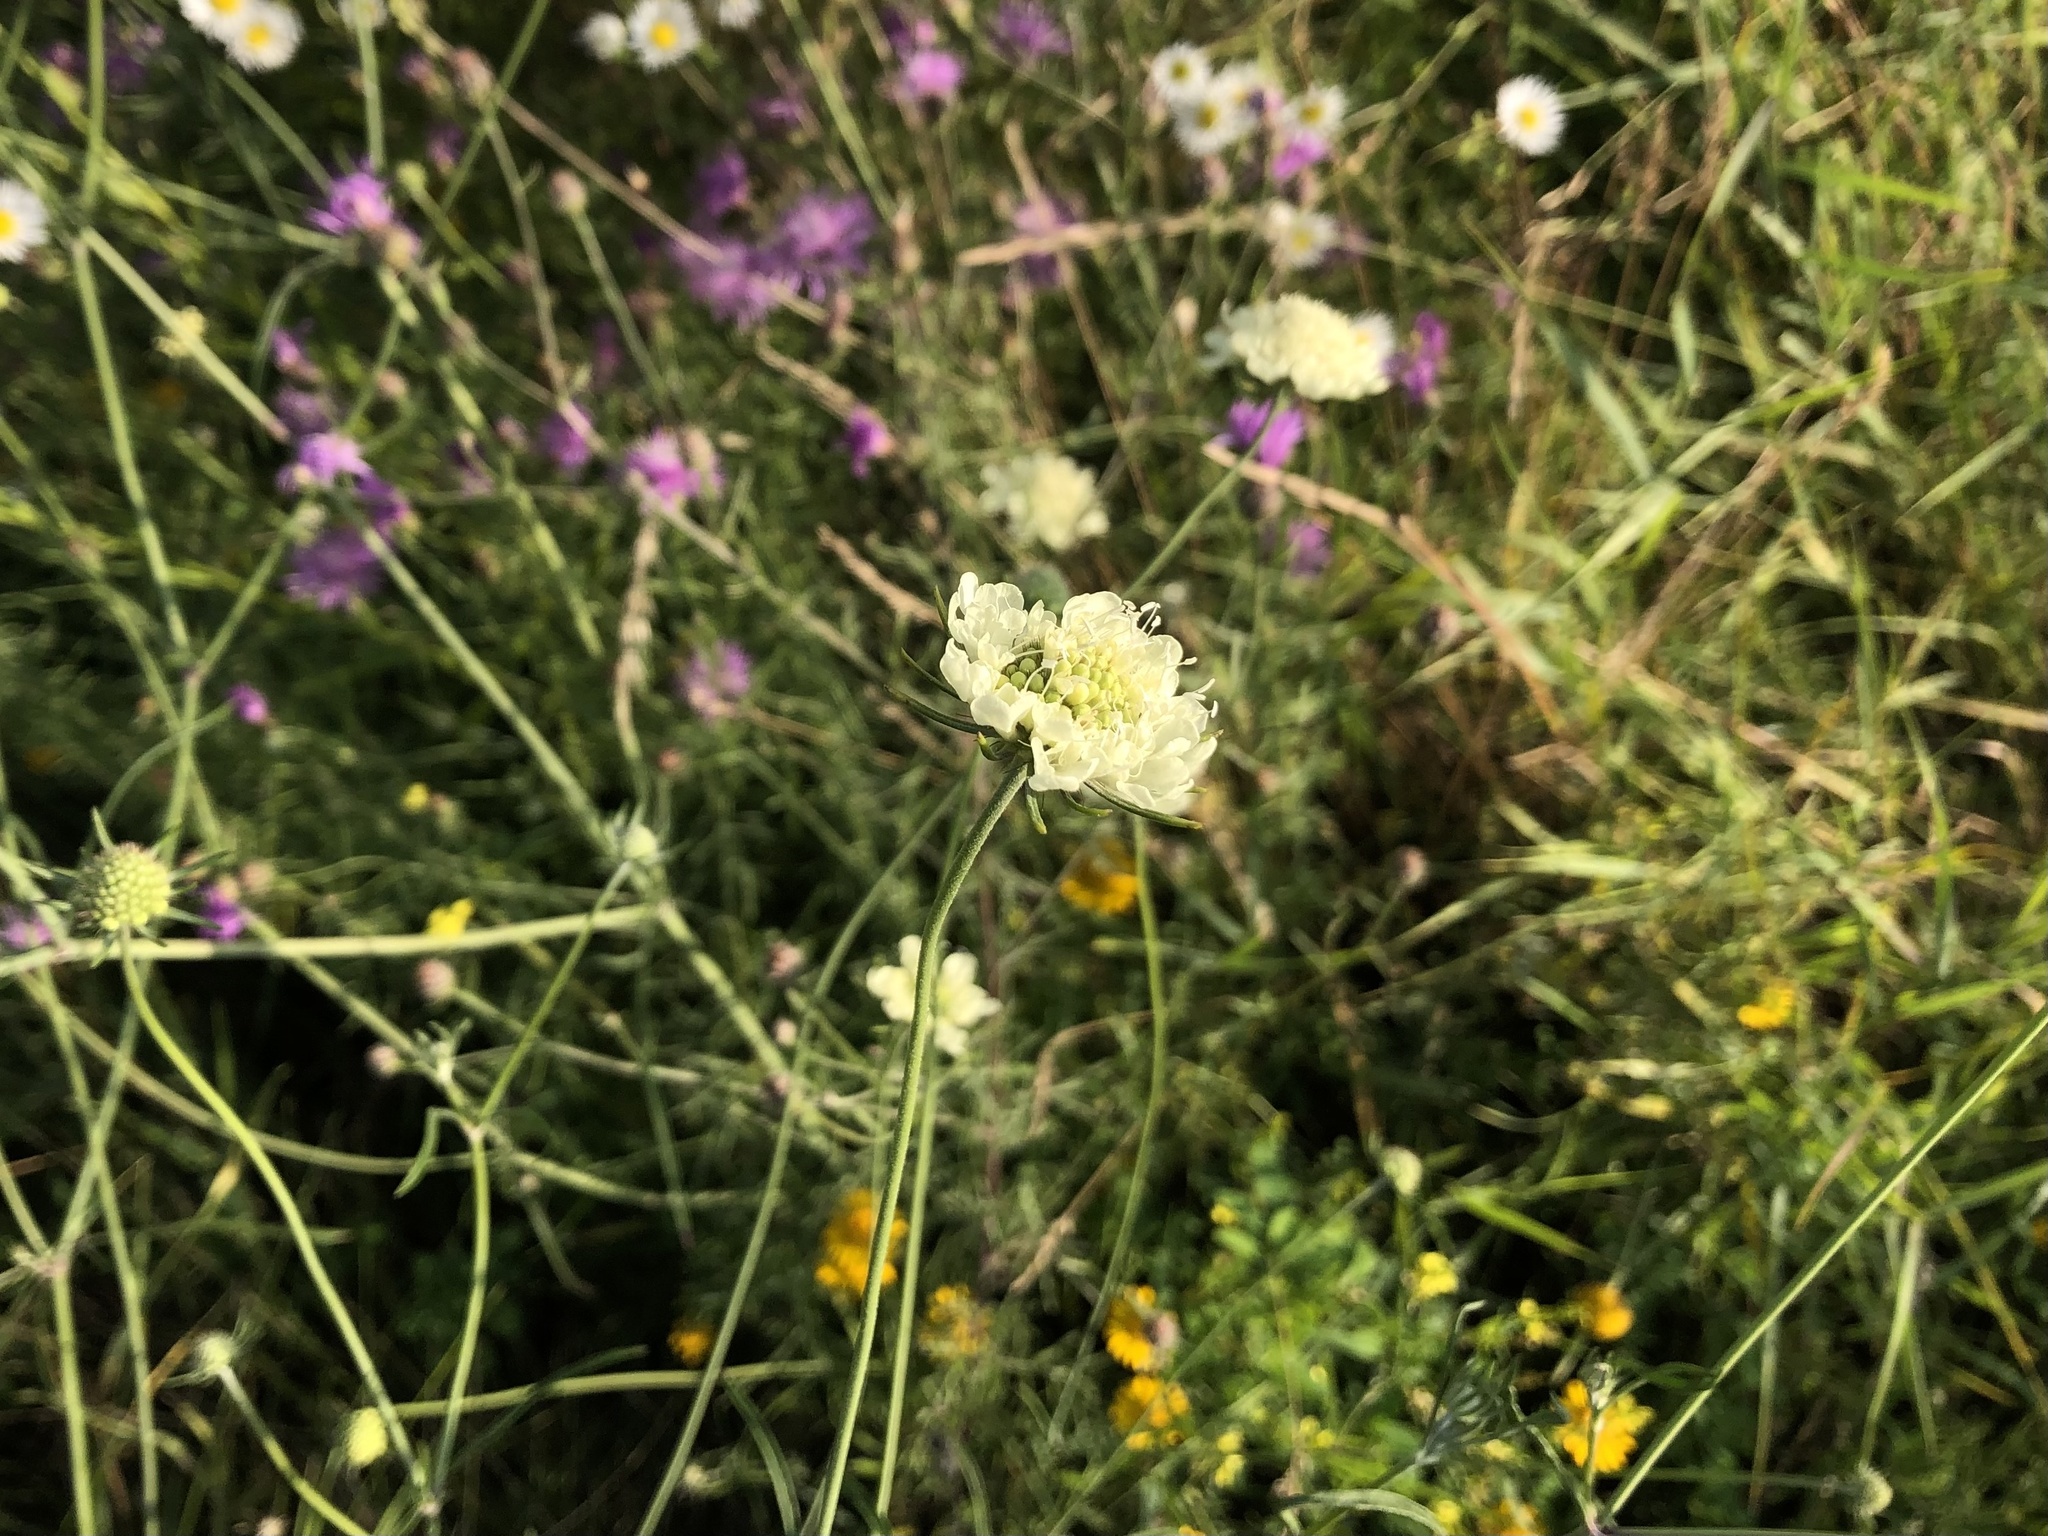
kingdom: Plantae
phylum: Tracheophyta
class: Magnoliopsida
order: Dipsacales
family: Caprifoliaceae
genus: Scabiosa
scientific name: Scabiosa ochroleuca
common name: Cream pincushions
